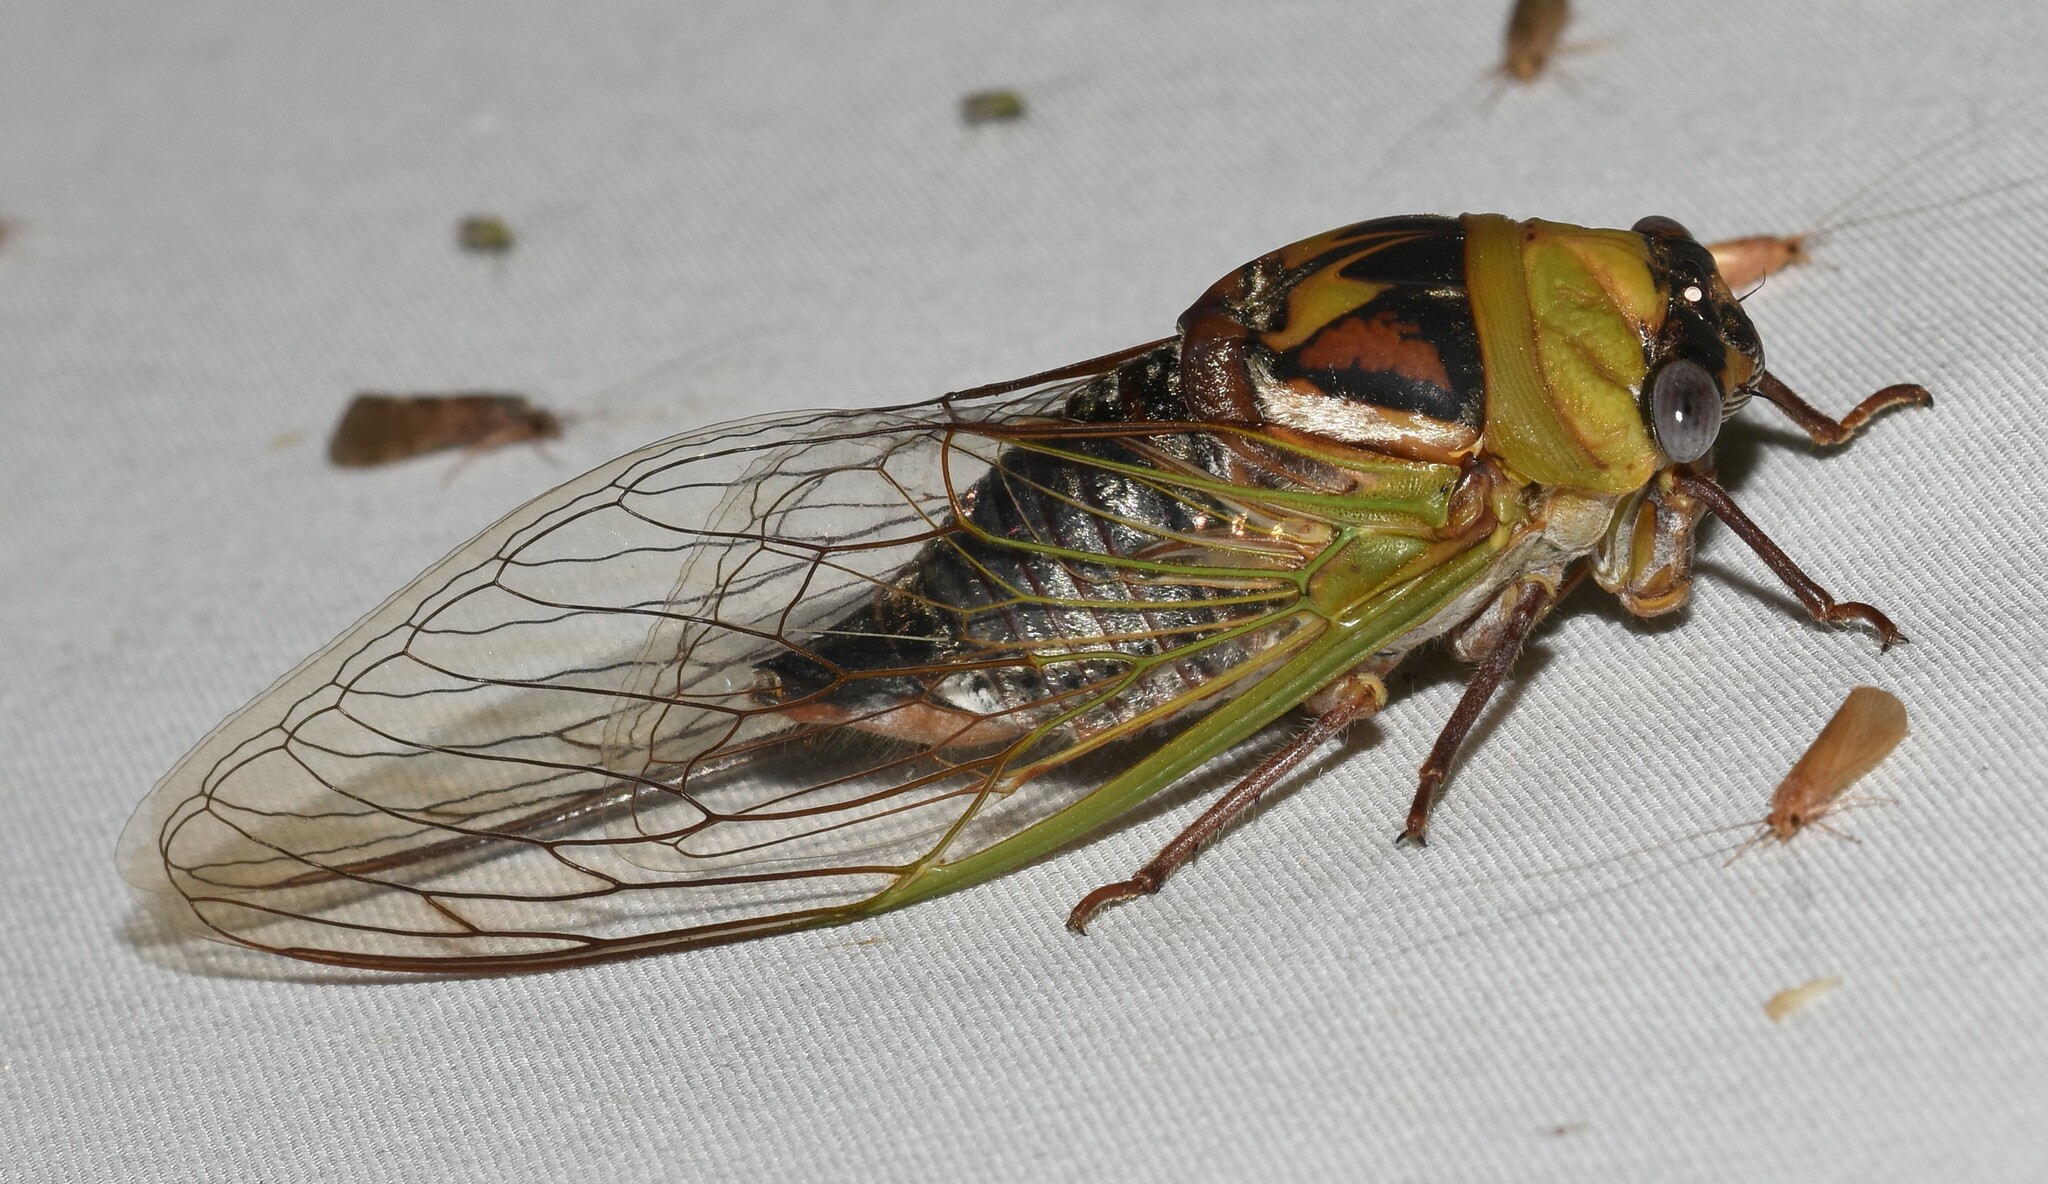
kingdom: Animalia
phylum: Arthropoda
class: Insecta
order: Hemiptera
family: Cicadidae
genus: Megatibicen
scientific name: Megatibicen pronotalis
